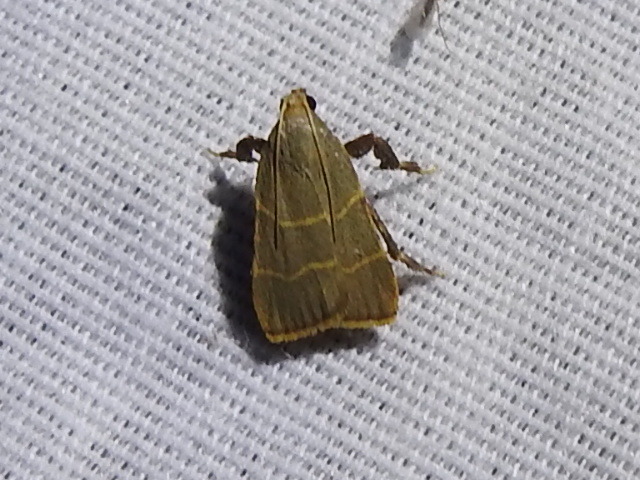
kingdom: Animalia
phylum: Arthropoda
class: Insecta
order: Lepidoptera
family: Pyralidae
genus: Parachma
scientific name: Parachma ochracealis
